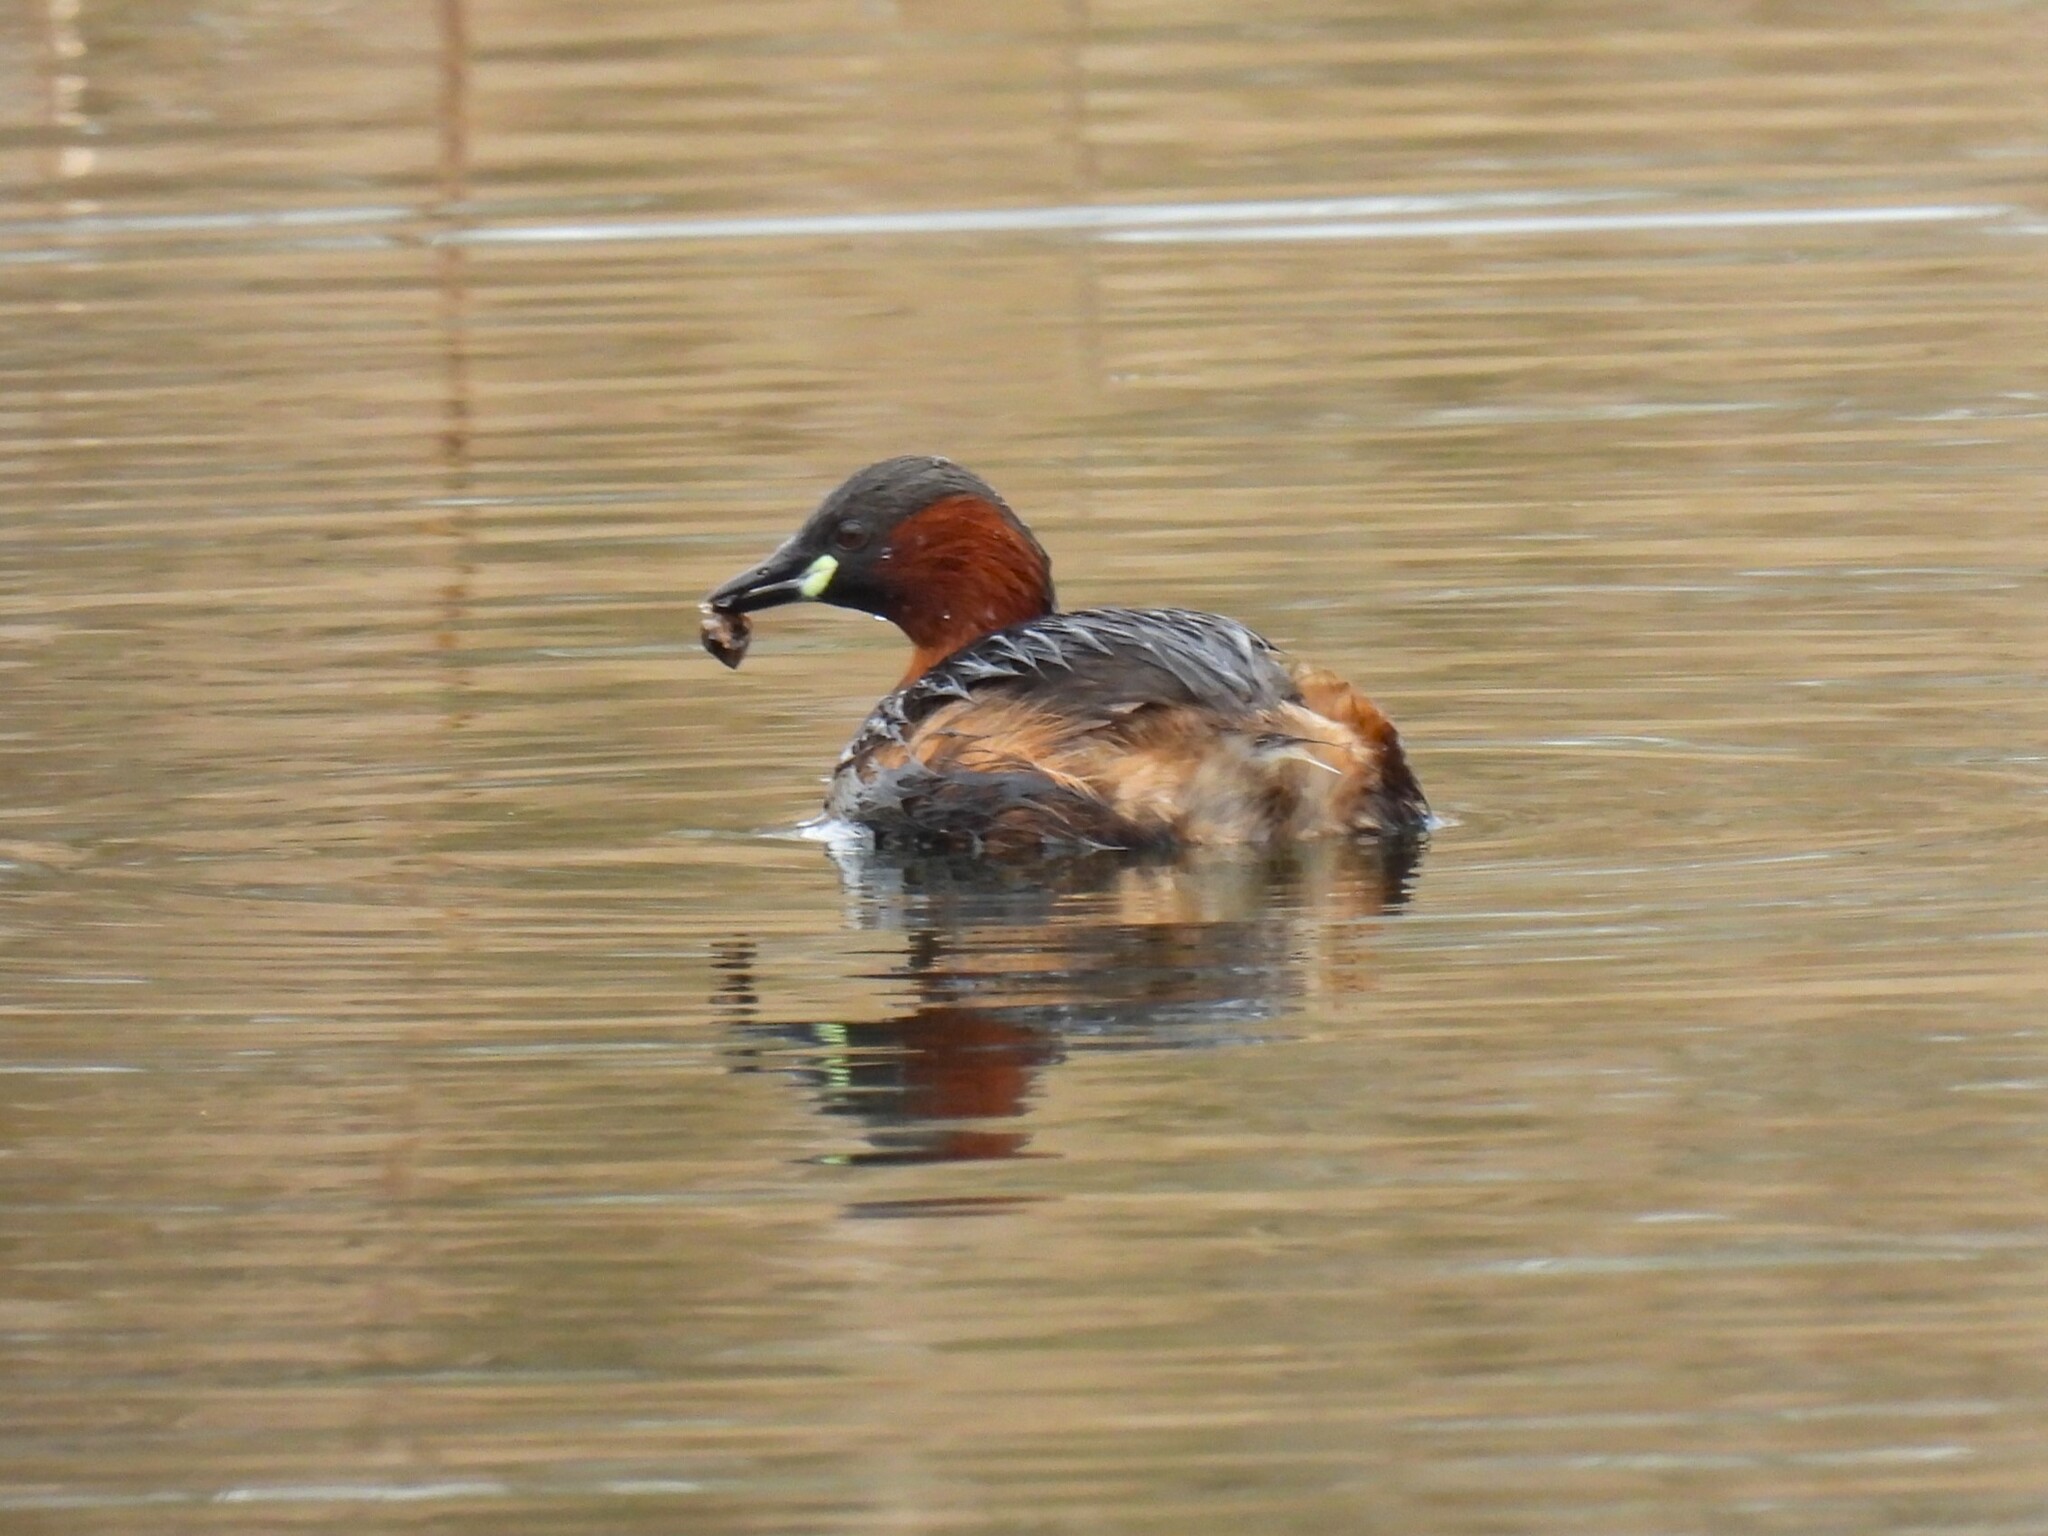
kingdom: Animalia
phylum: Chordata
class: Aves
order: Podicipediformes
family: Podicipedidae
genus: Tachybaptus
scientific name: Tachybaptus ruficollis
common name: Little grebe
